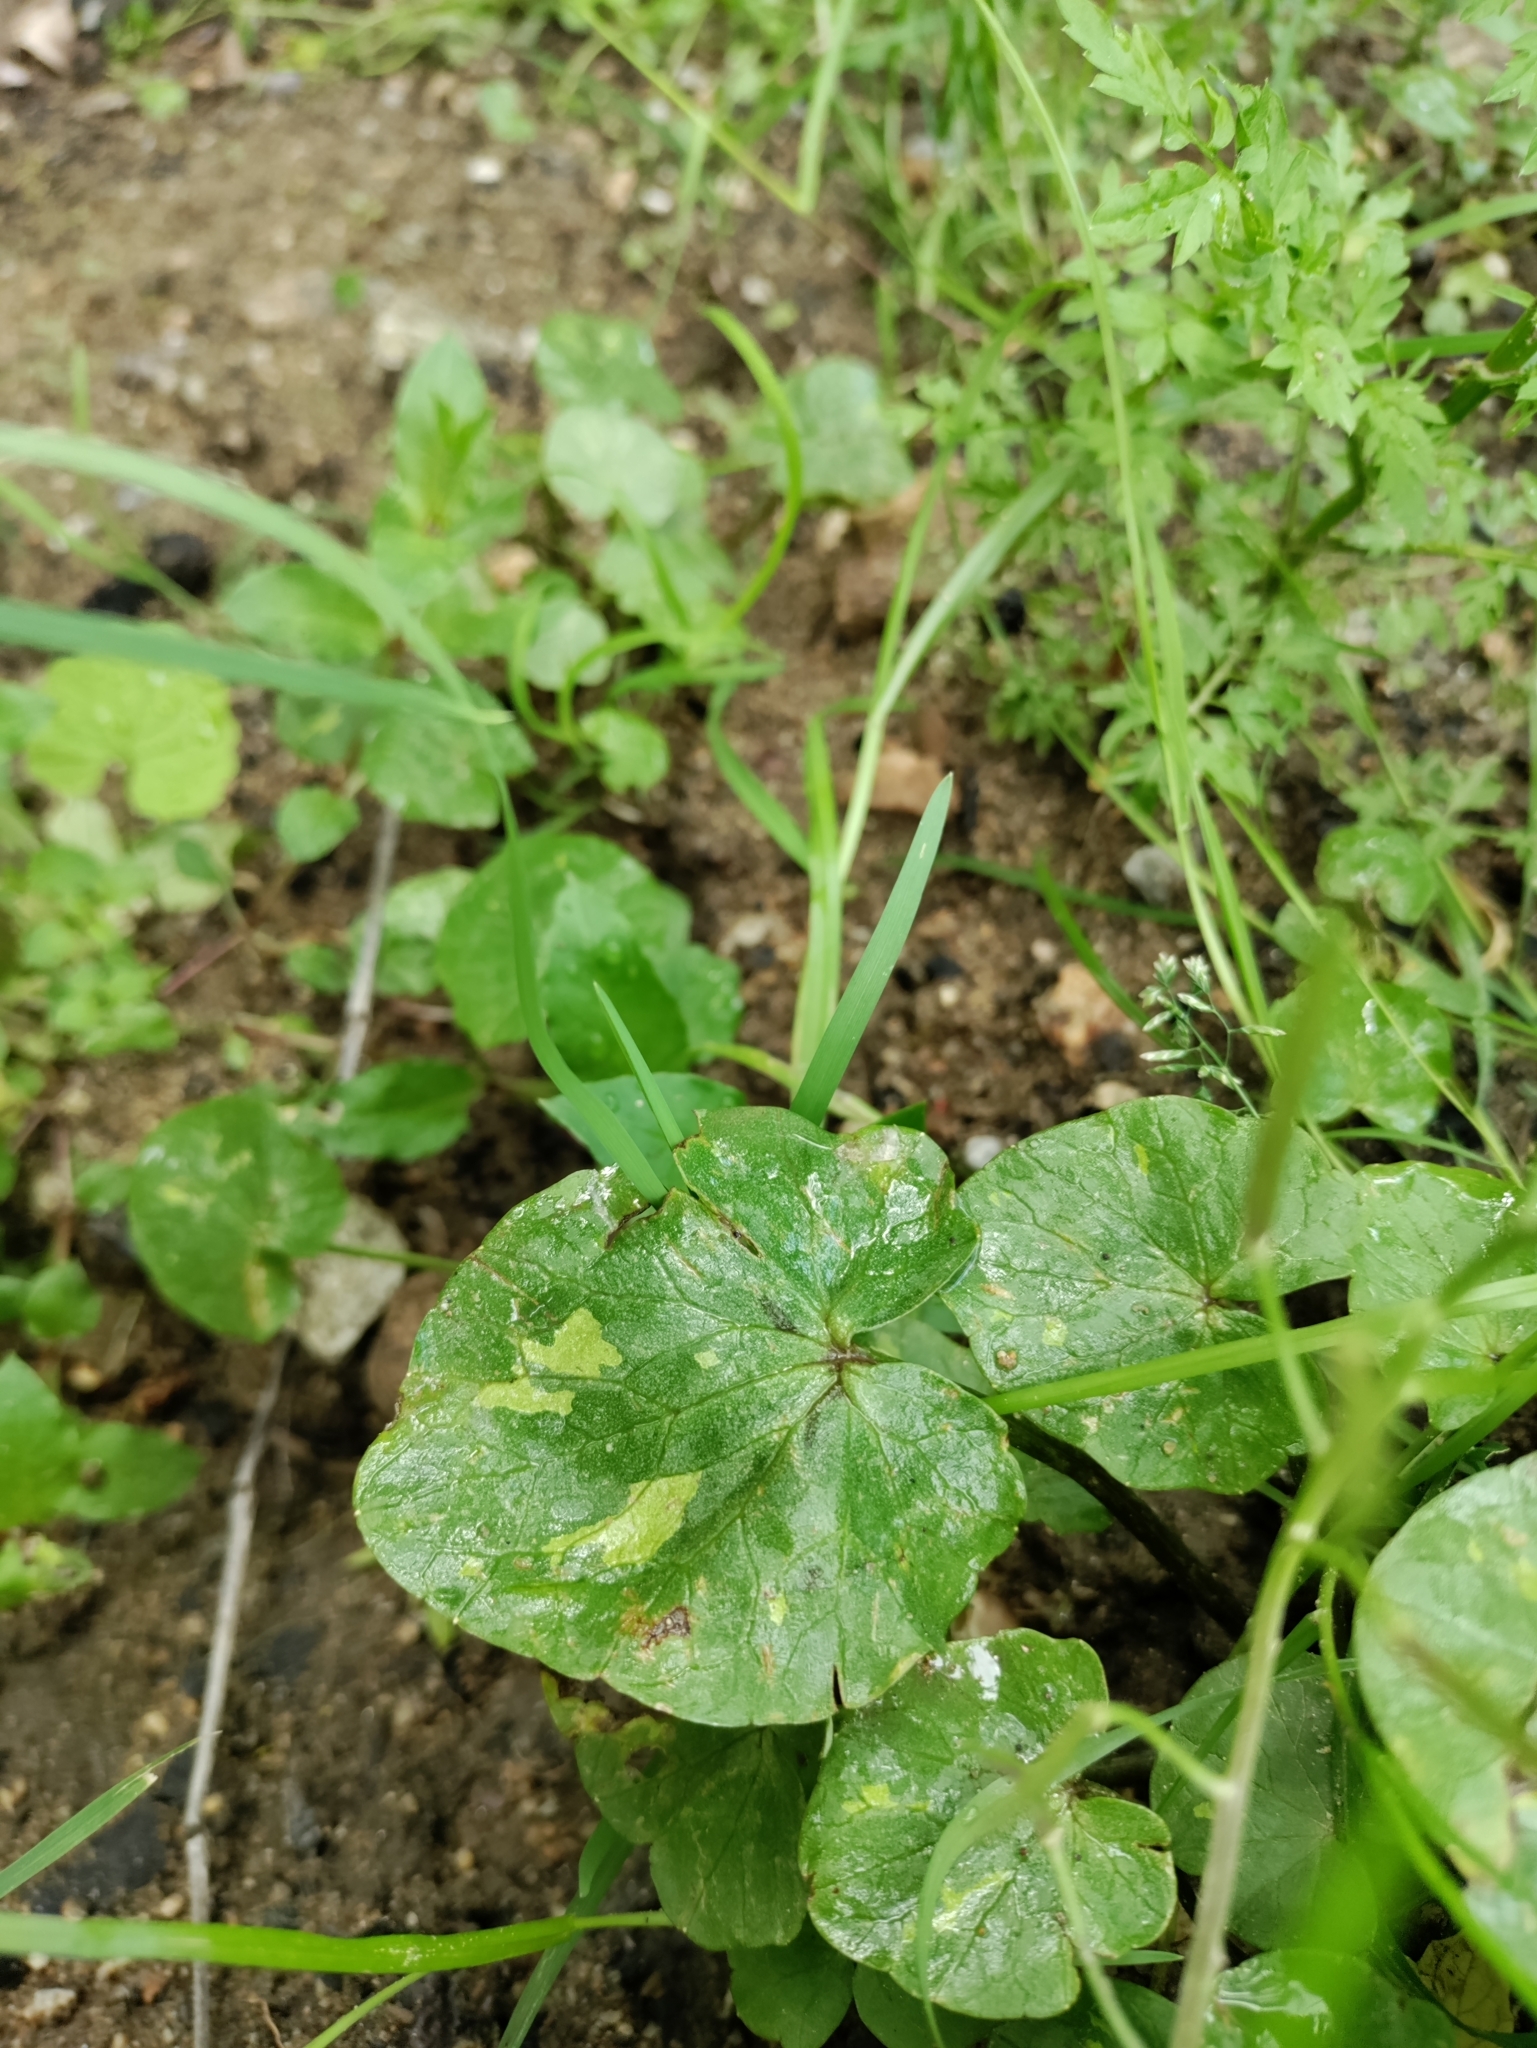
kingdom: Plantae
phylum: Tracheophyta
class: Magnoliopsida
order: Ranunculales
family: Ranunculaceae
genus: Ficaria
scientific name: Ficaria verna
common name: Lesser celandine
